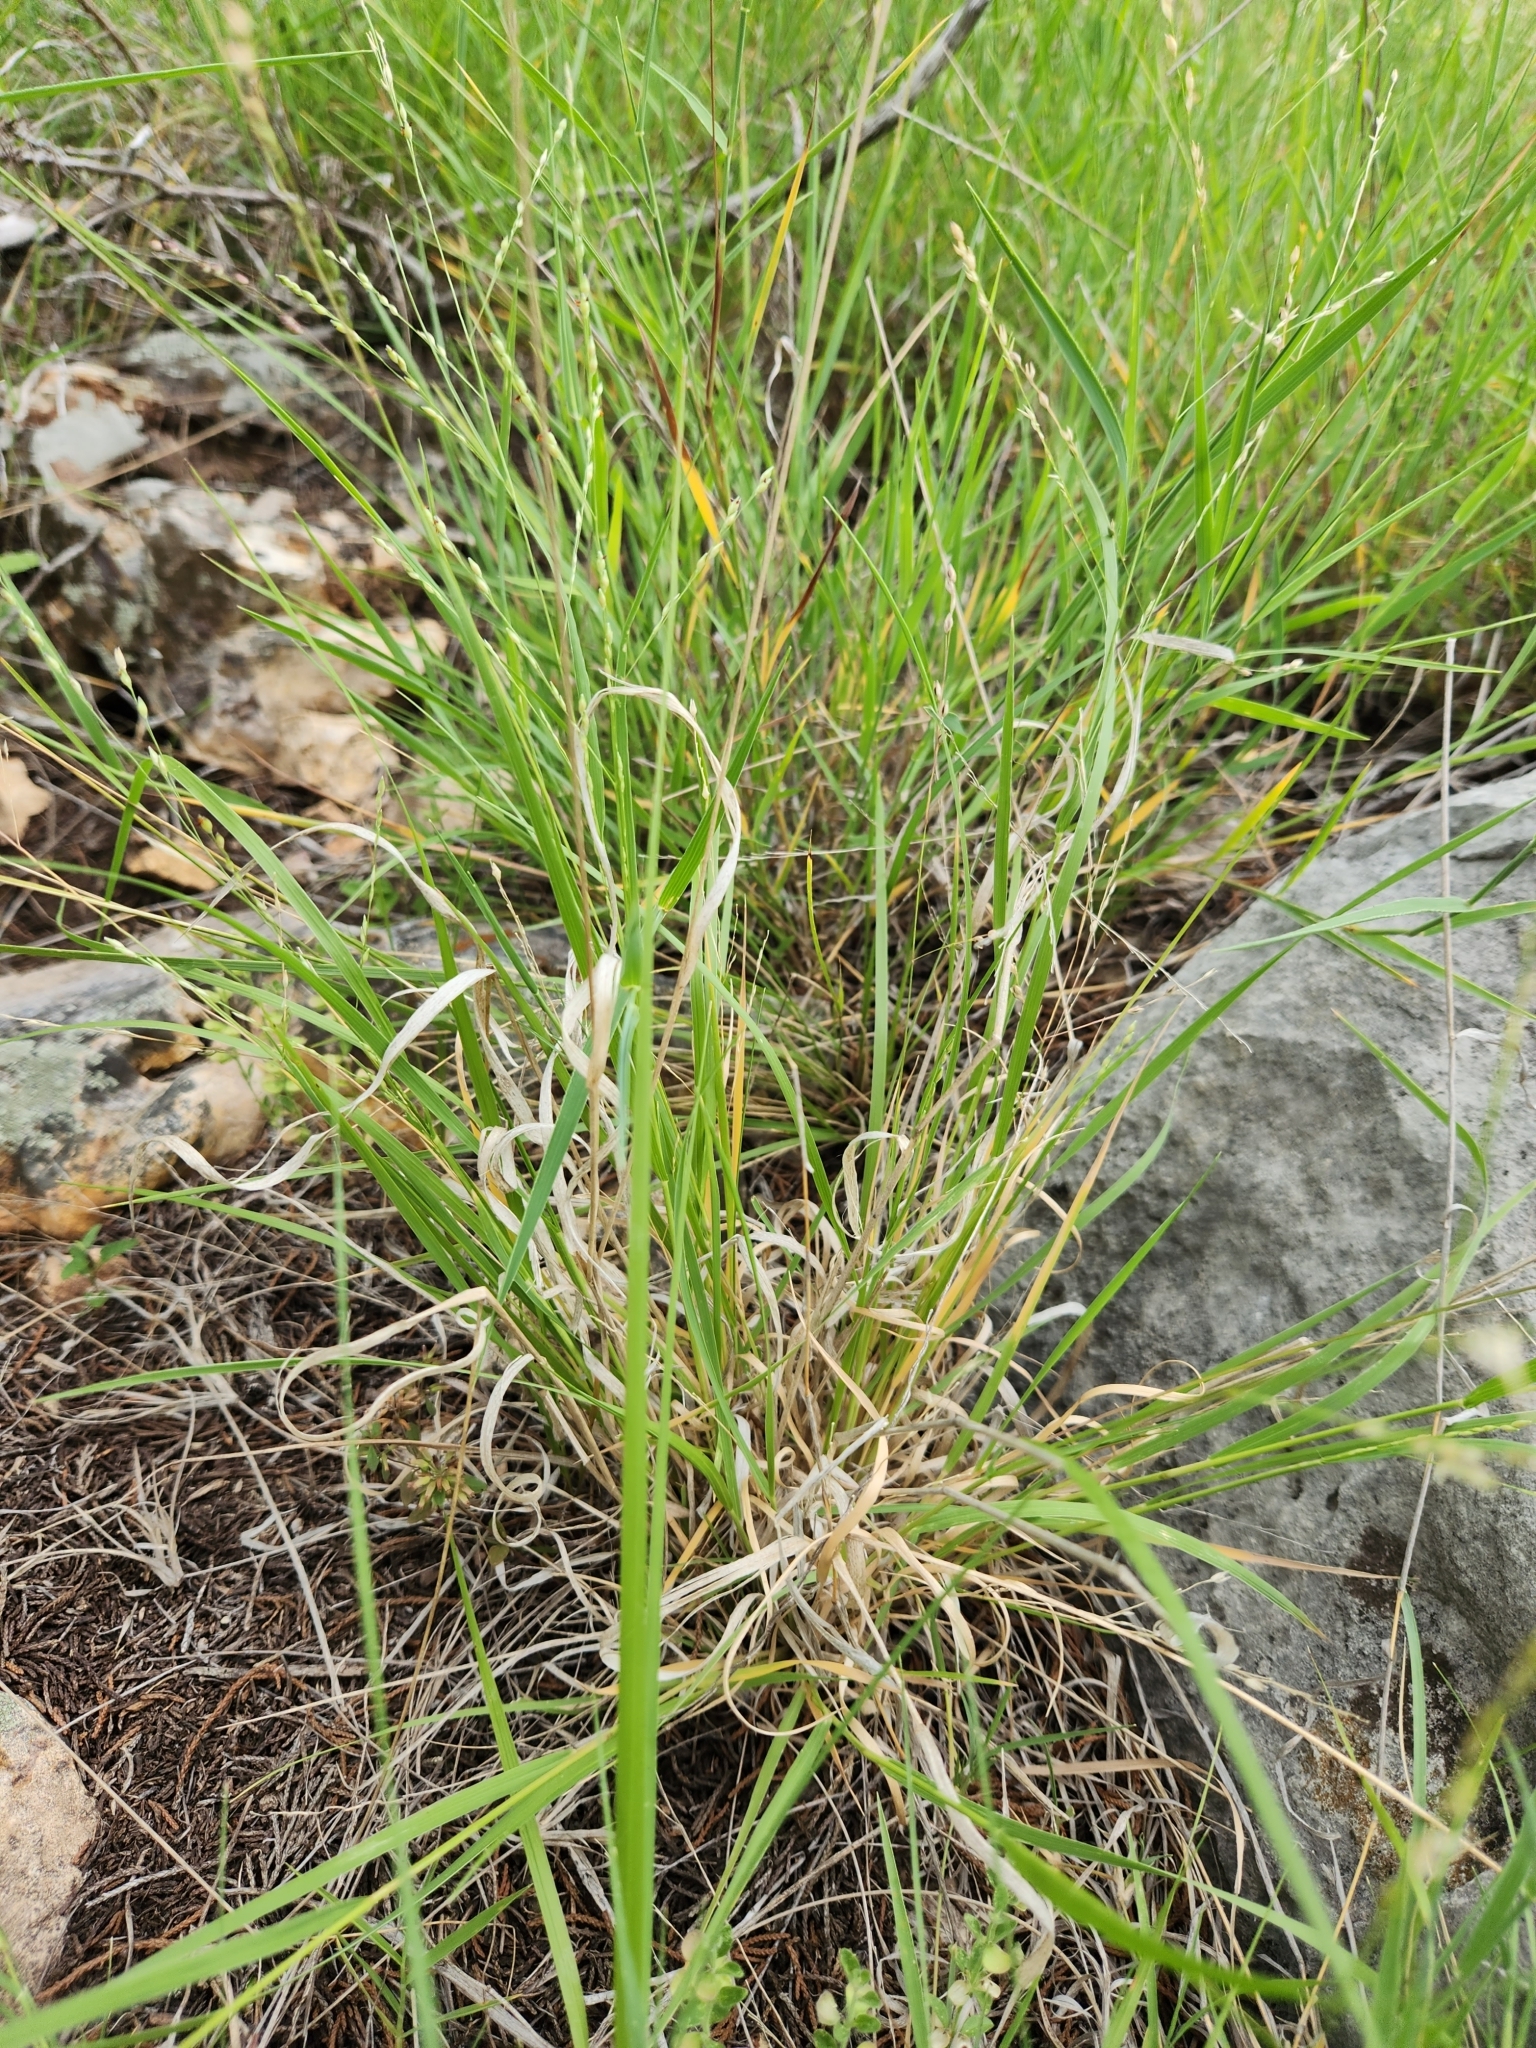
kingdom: Plantae
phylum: Tracheophyta
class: Liliopsida
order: Poales
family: Poaceae
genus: Panicum
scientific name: Panicum hallii
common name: Hall's witchgrass
